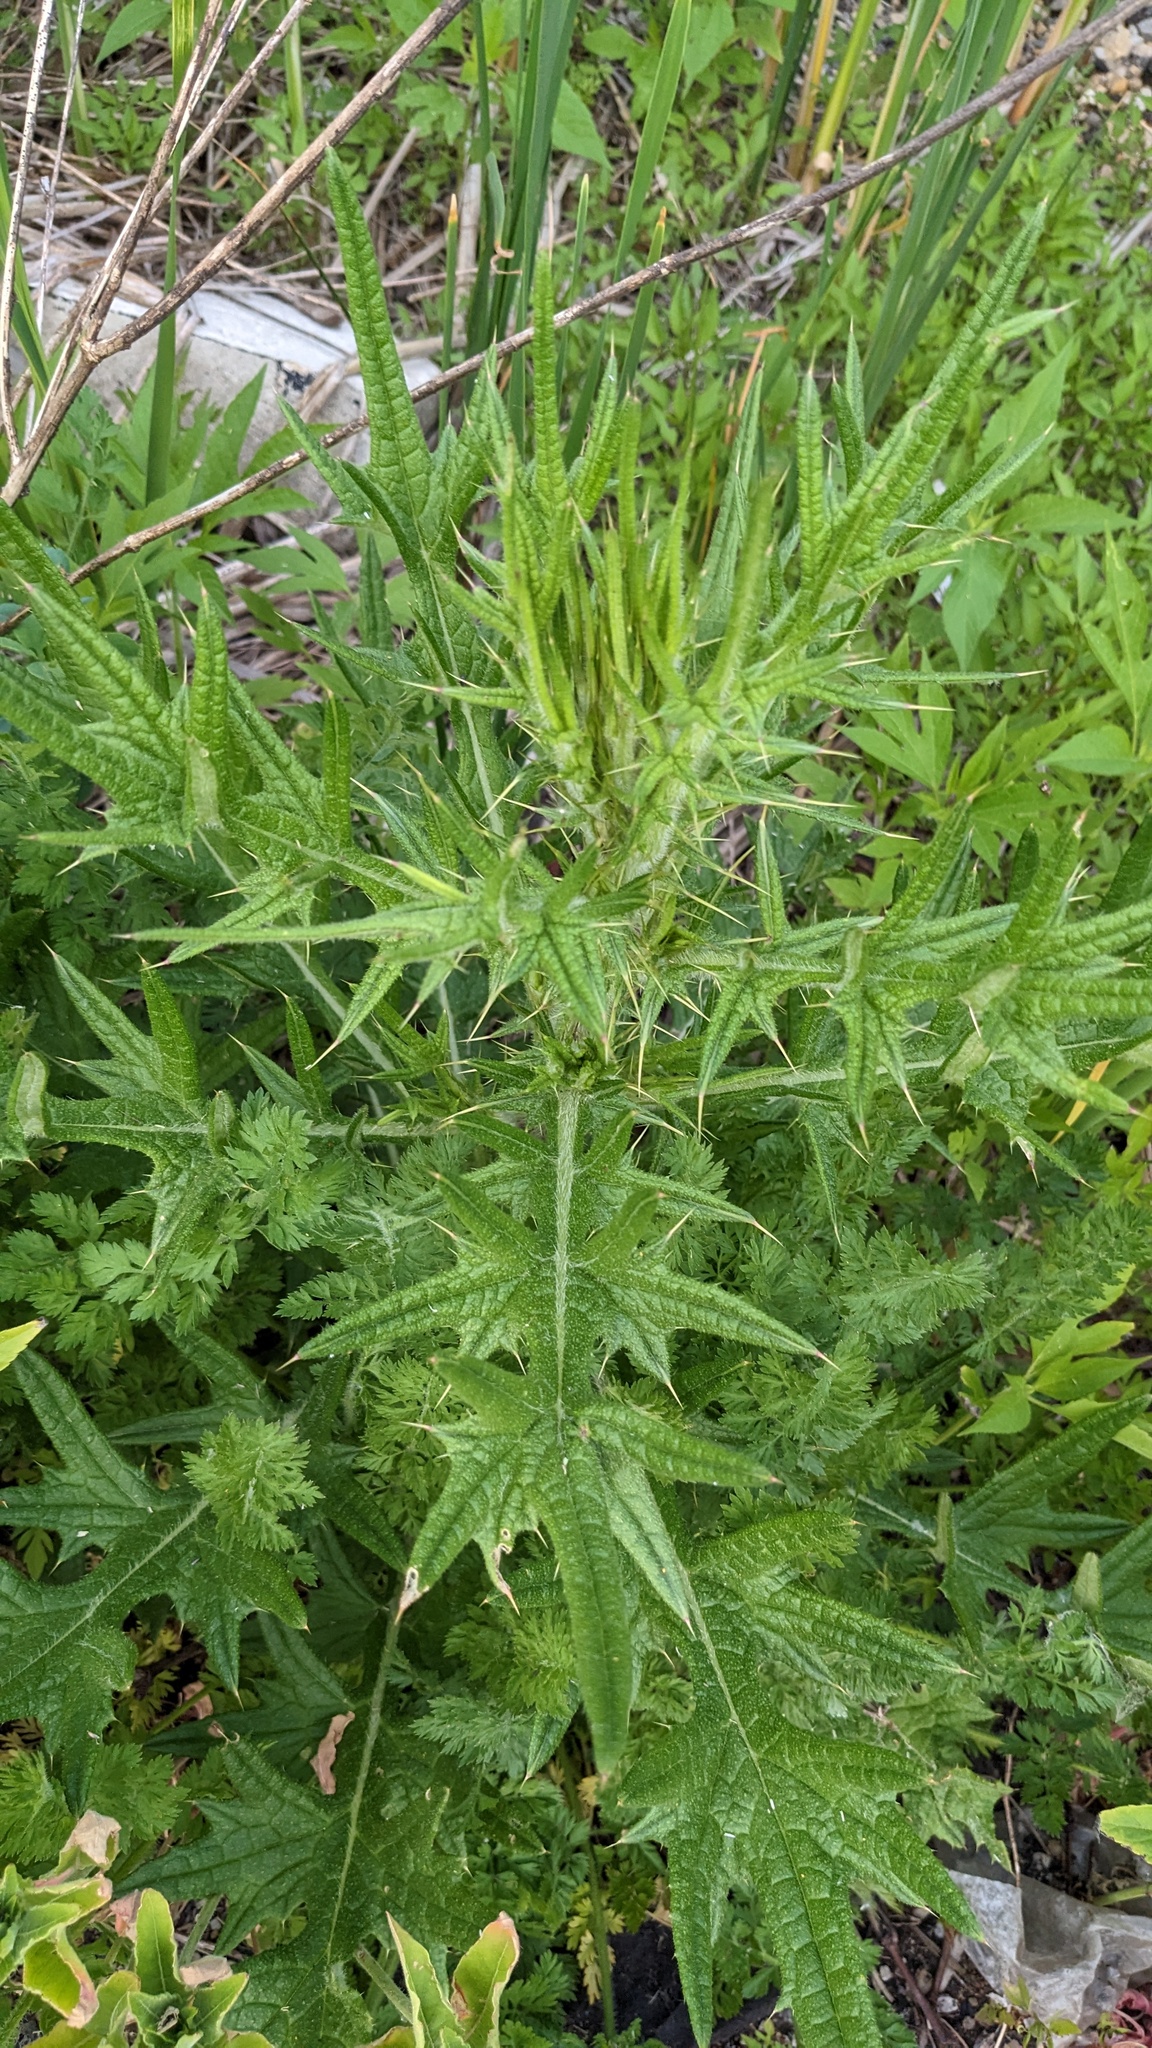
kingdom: Plantae
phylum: Tracheophyta
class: Magnoliopsida
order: Asterales
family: Asteraceae
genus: Cirsium
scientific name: Cirsium vulgare
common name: Bull thistle
